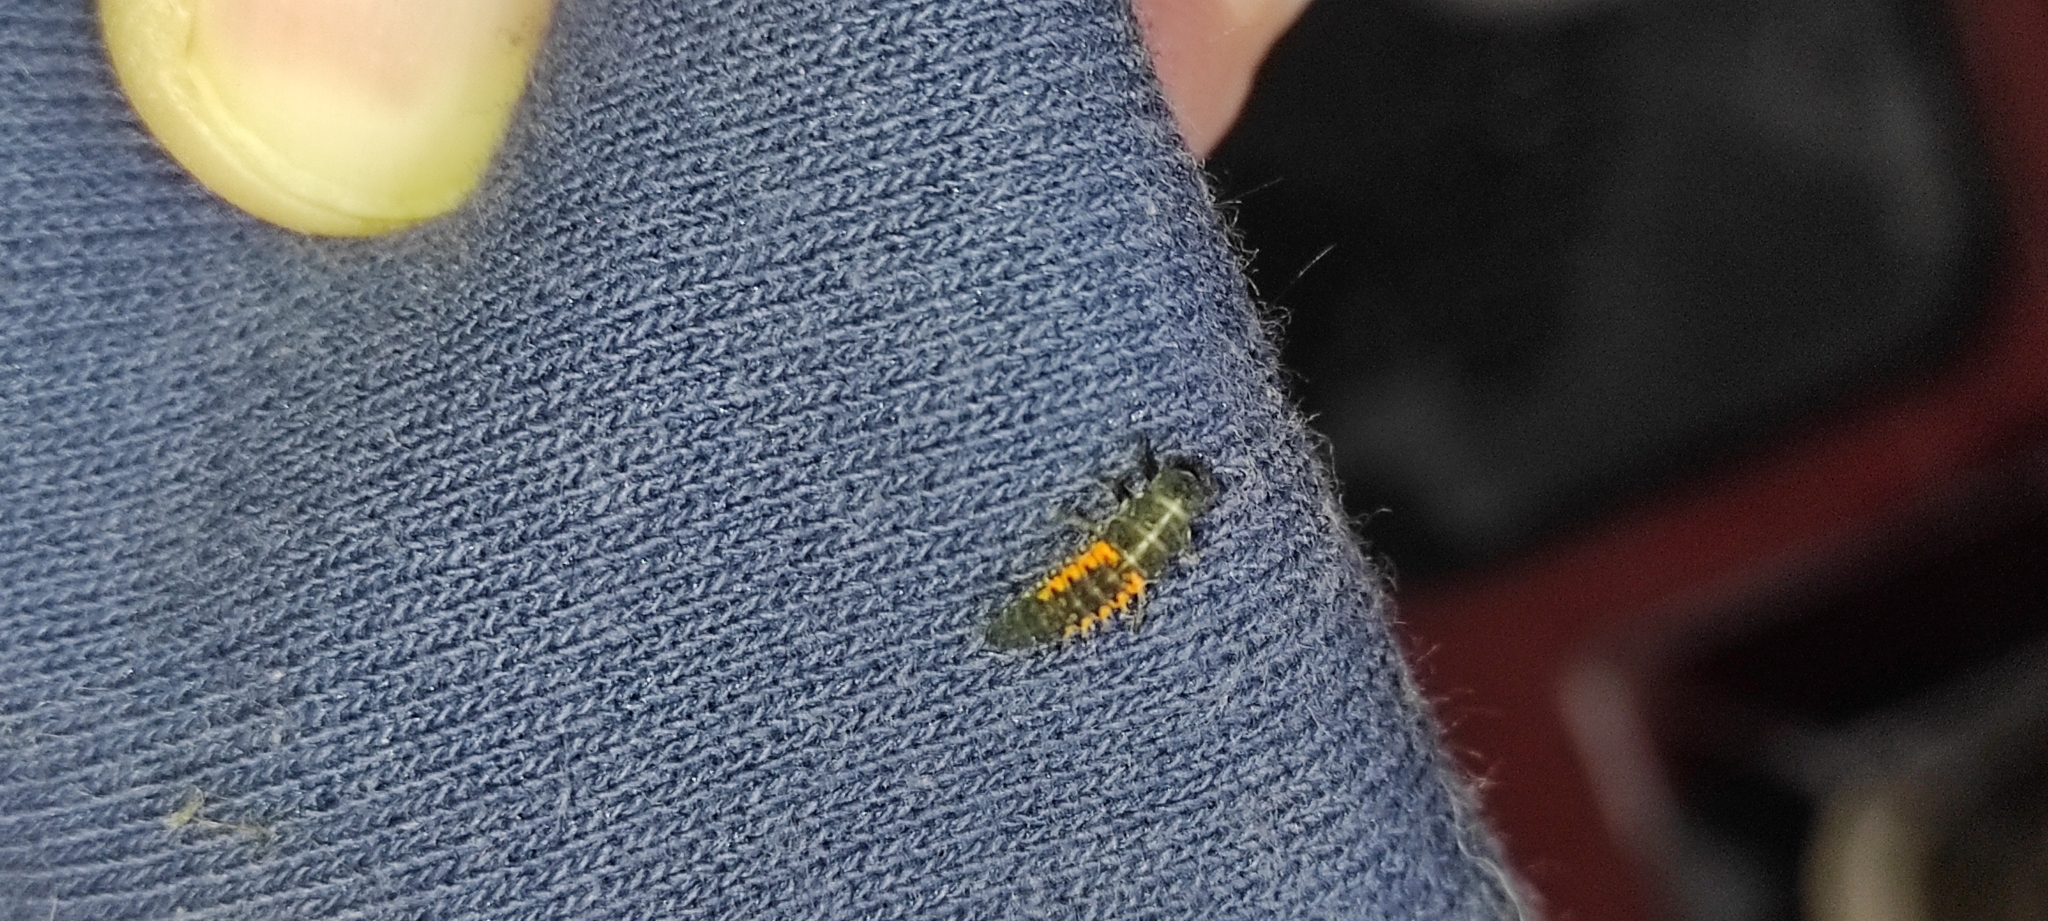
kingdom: Animalia
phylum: Arthropoda
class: Insecta
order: Coleoptera
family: Coccinellidae
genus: Harmonia
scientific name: Harmonia axyridis
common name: Harlequin ladybird
